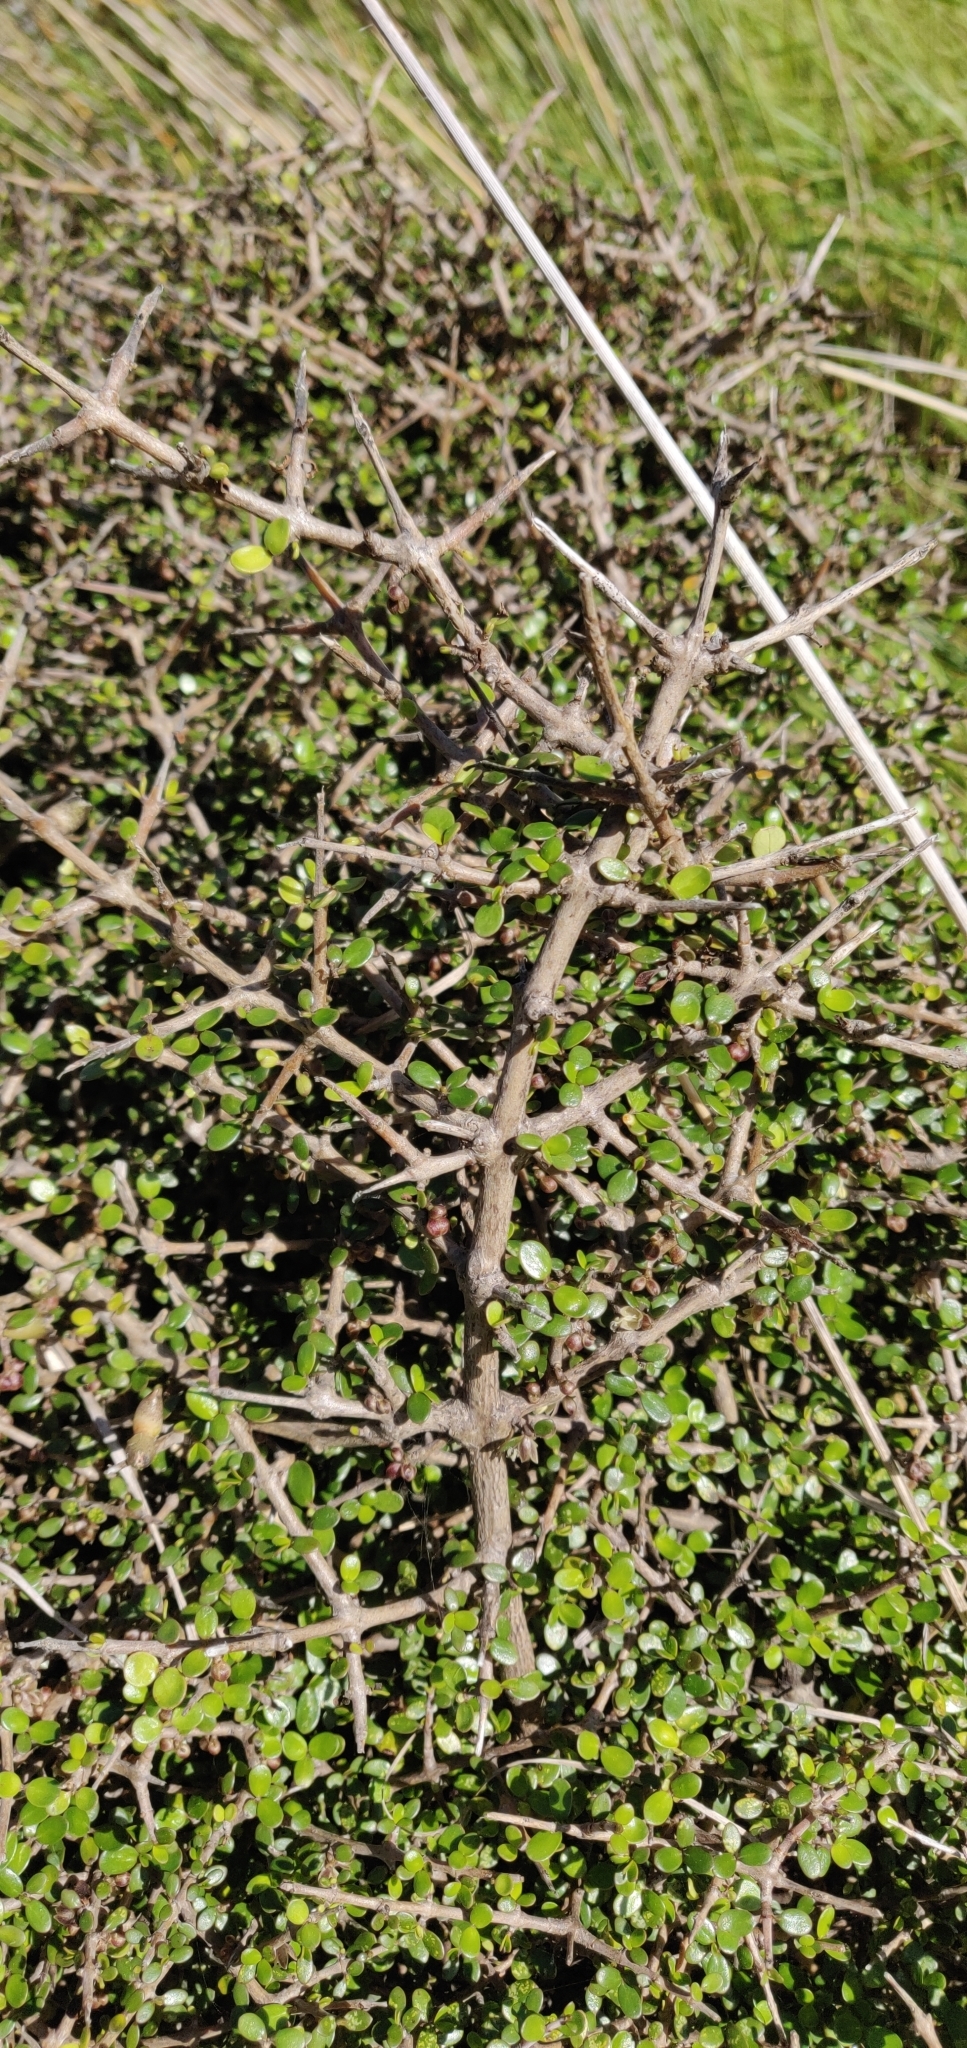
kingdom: Plantae
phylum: Tracheophyta
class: Magnoliopsida
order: Gentianales
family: Rubiaceae
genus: Coprosma
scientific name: Coprosma propinqua
